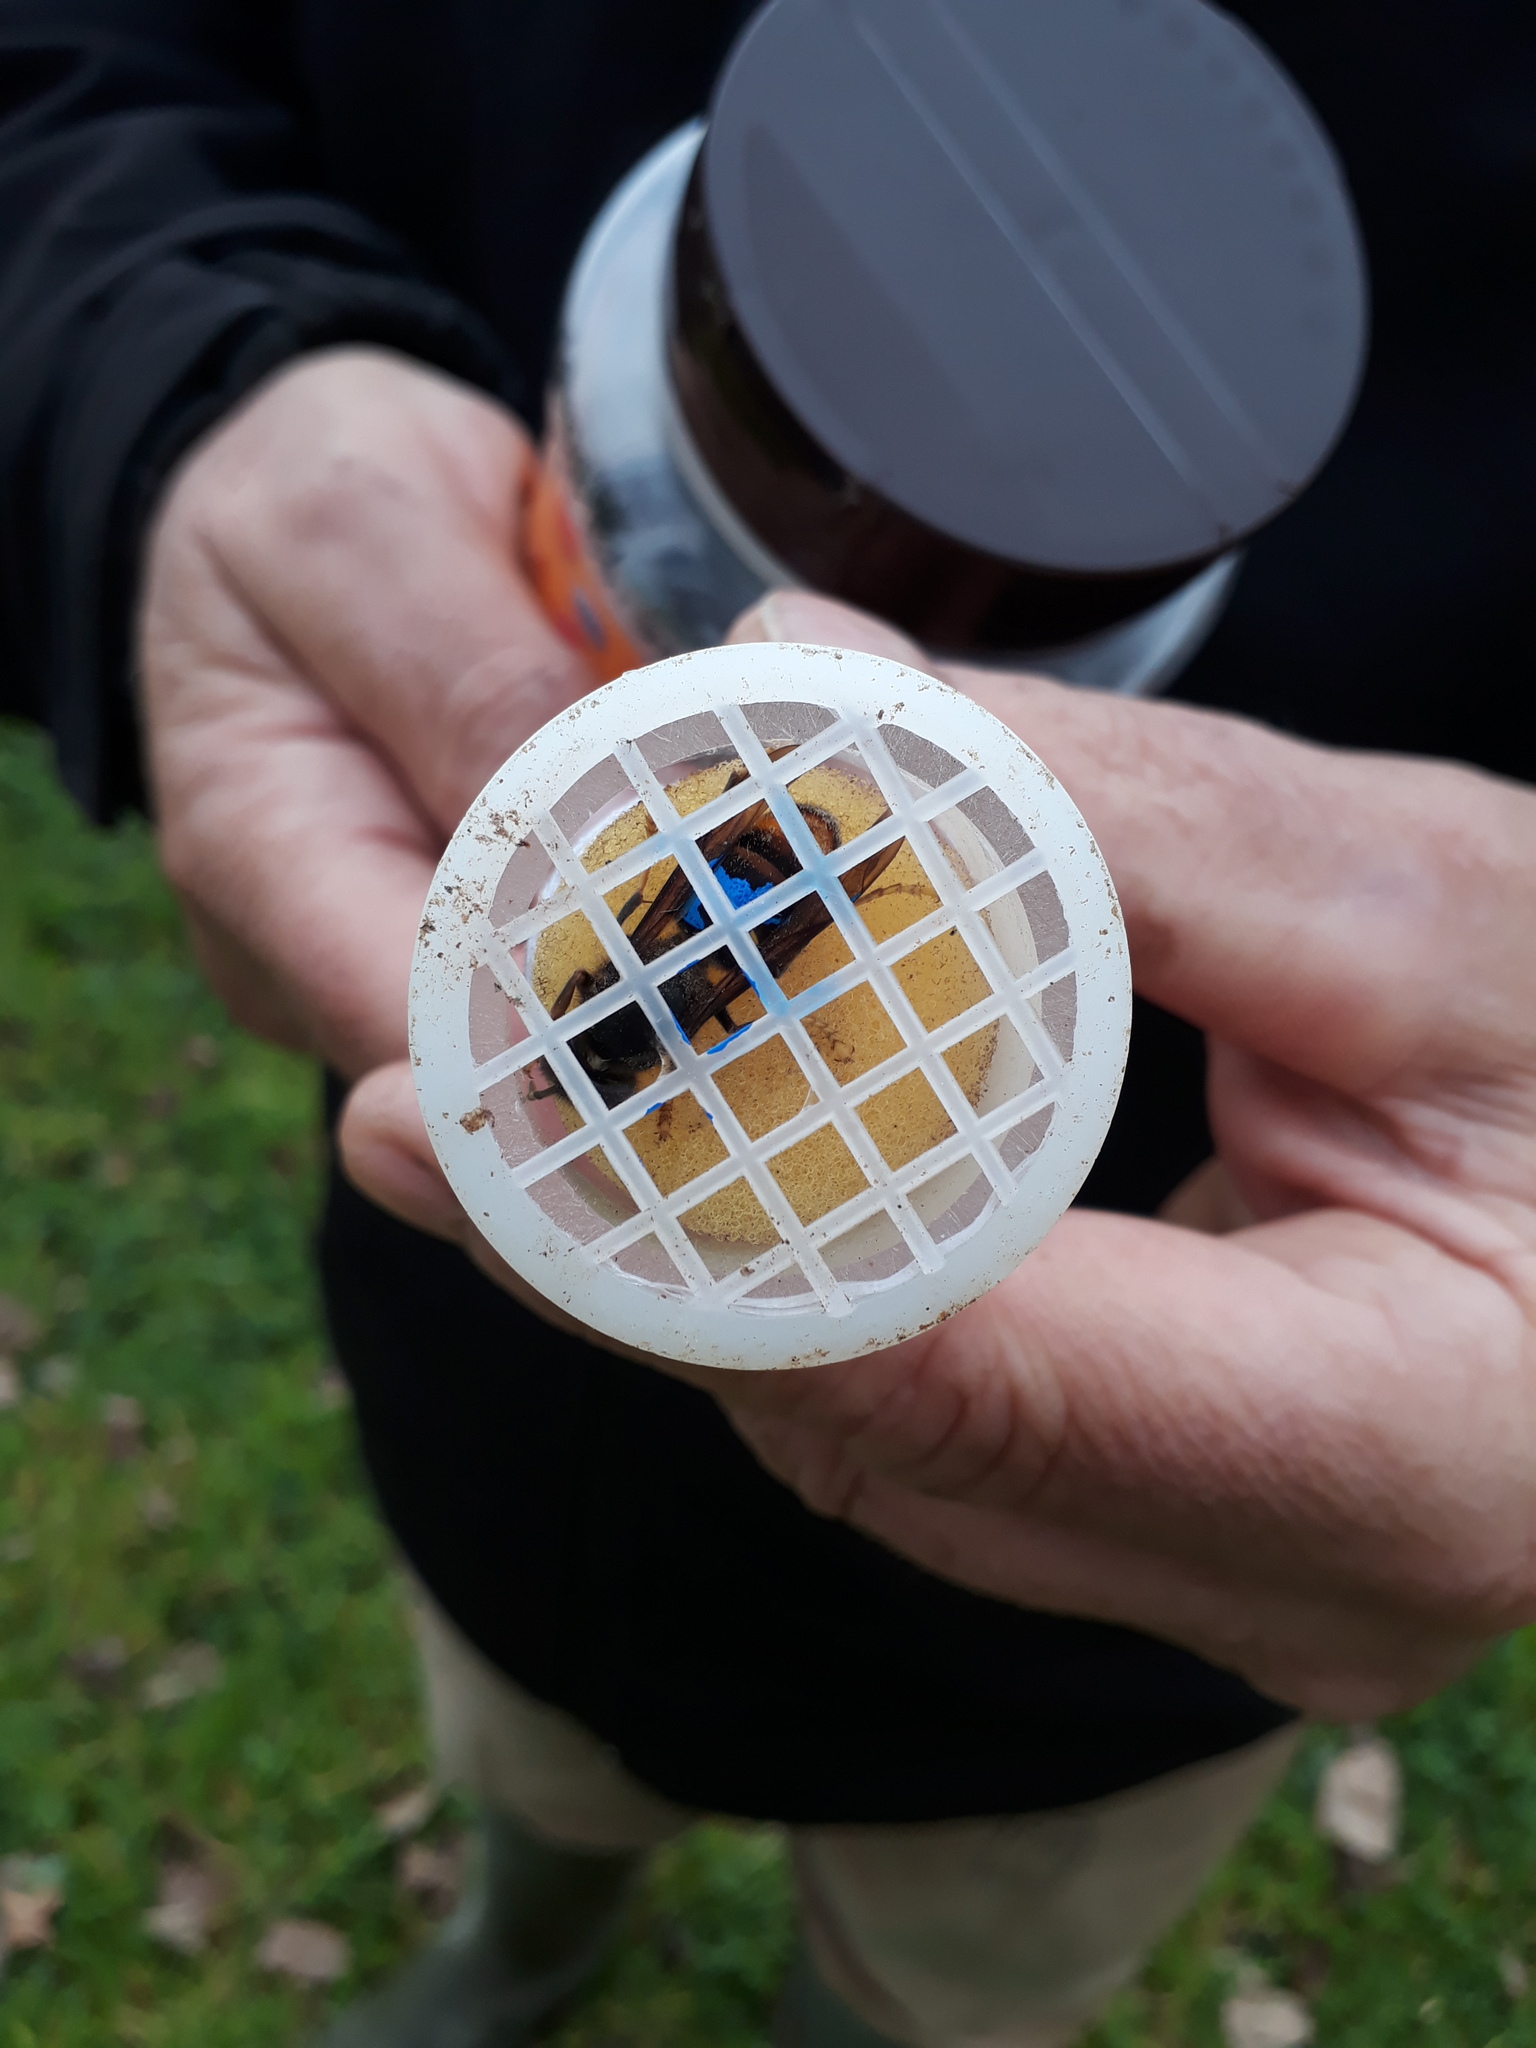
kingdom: Animalia
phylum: Arthropoda
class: Insecta
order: Hymenoptera
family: Vespidae
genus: Vespa
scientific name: Vespa velutina
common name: Asian hornet
